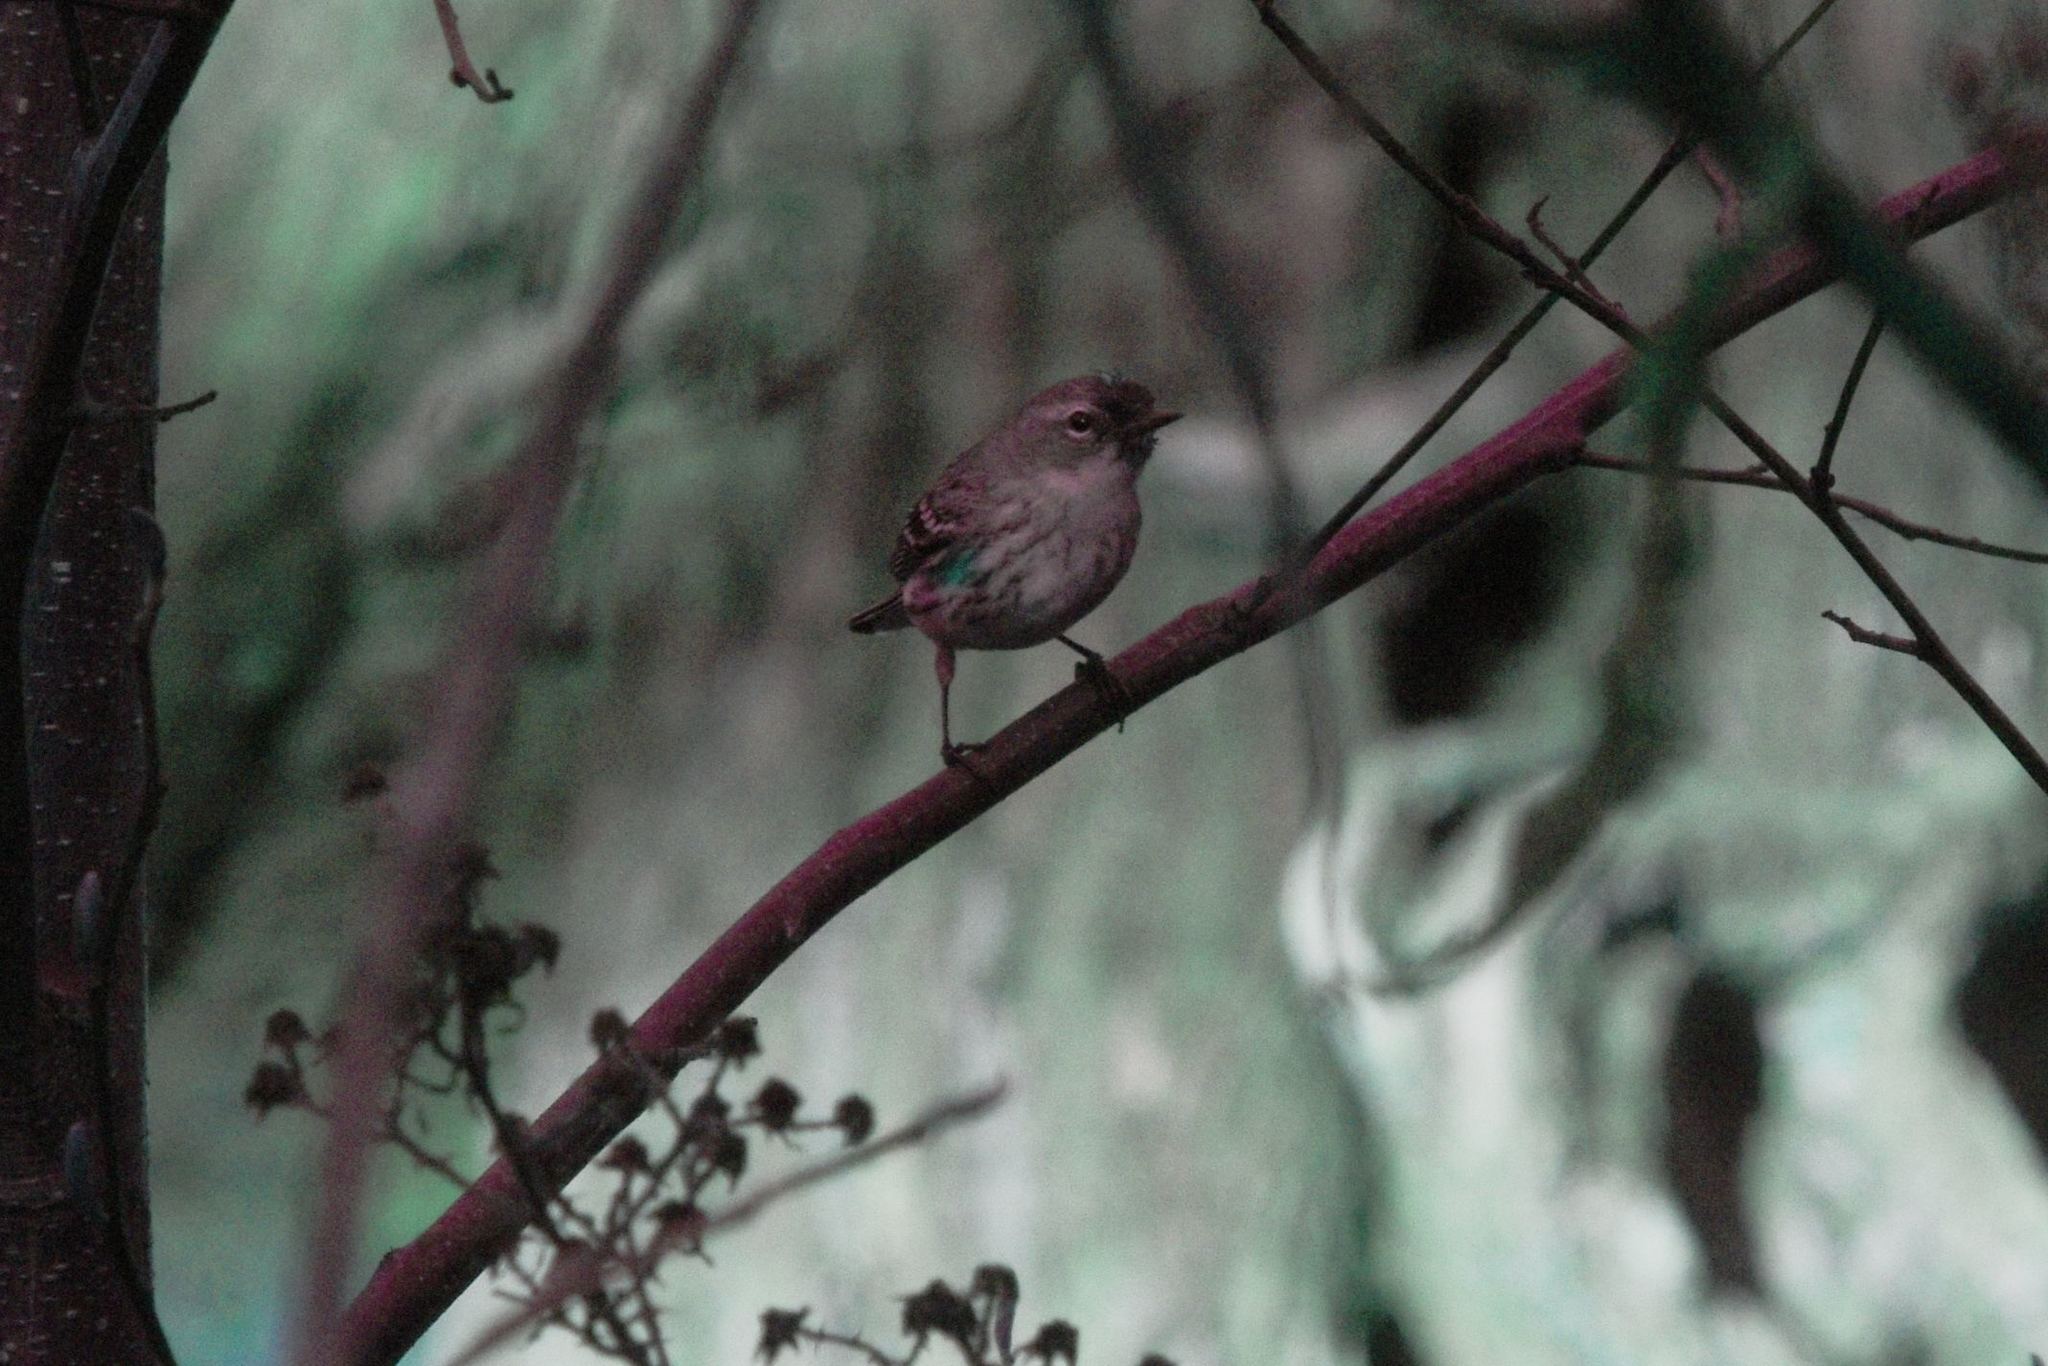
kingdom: Animalia
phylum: Chordata
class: Aves
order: Passeriformes
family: Parulidae
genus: Setophaga
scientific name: Setophaga coronata
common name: Myrtle warbler
